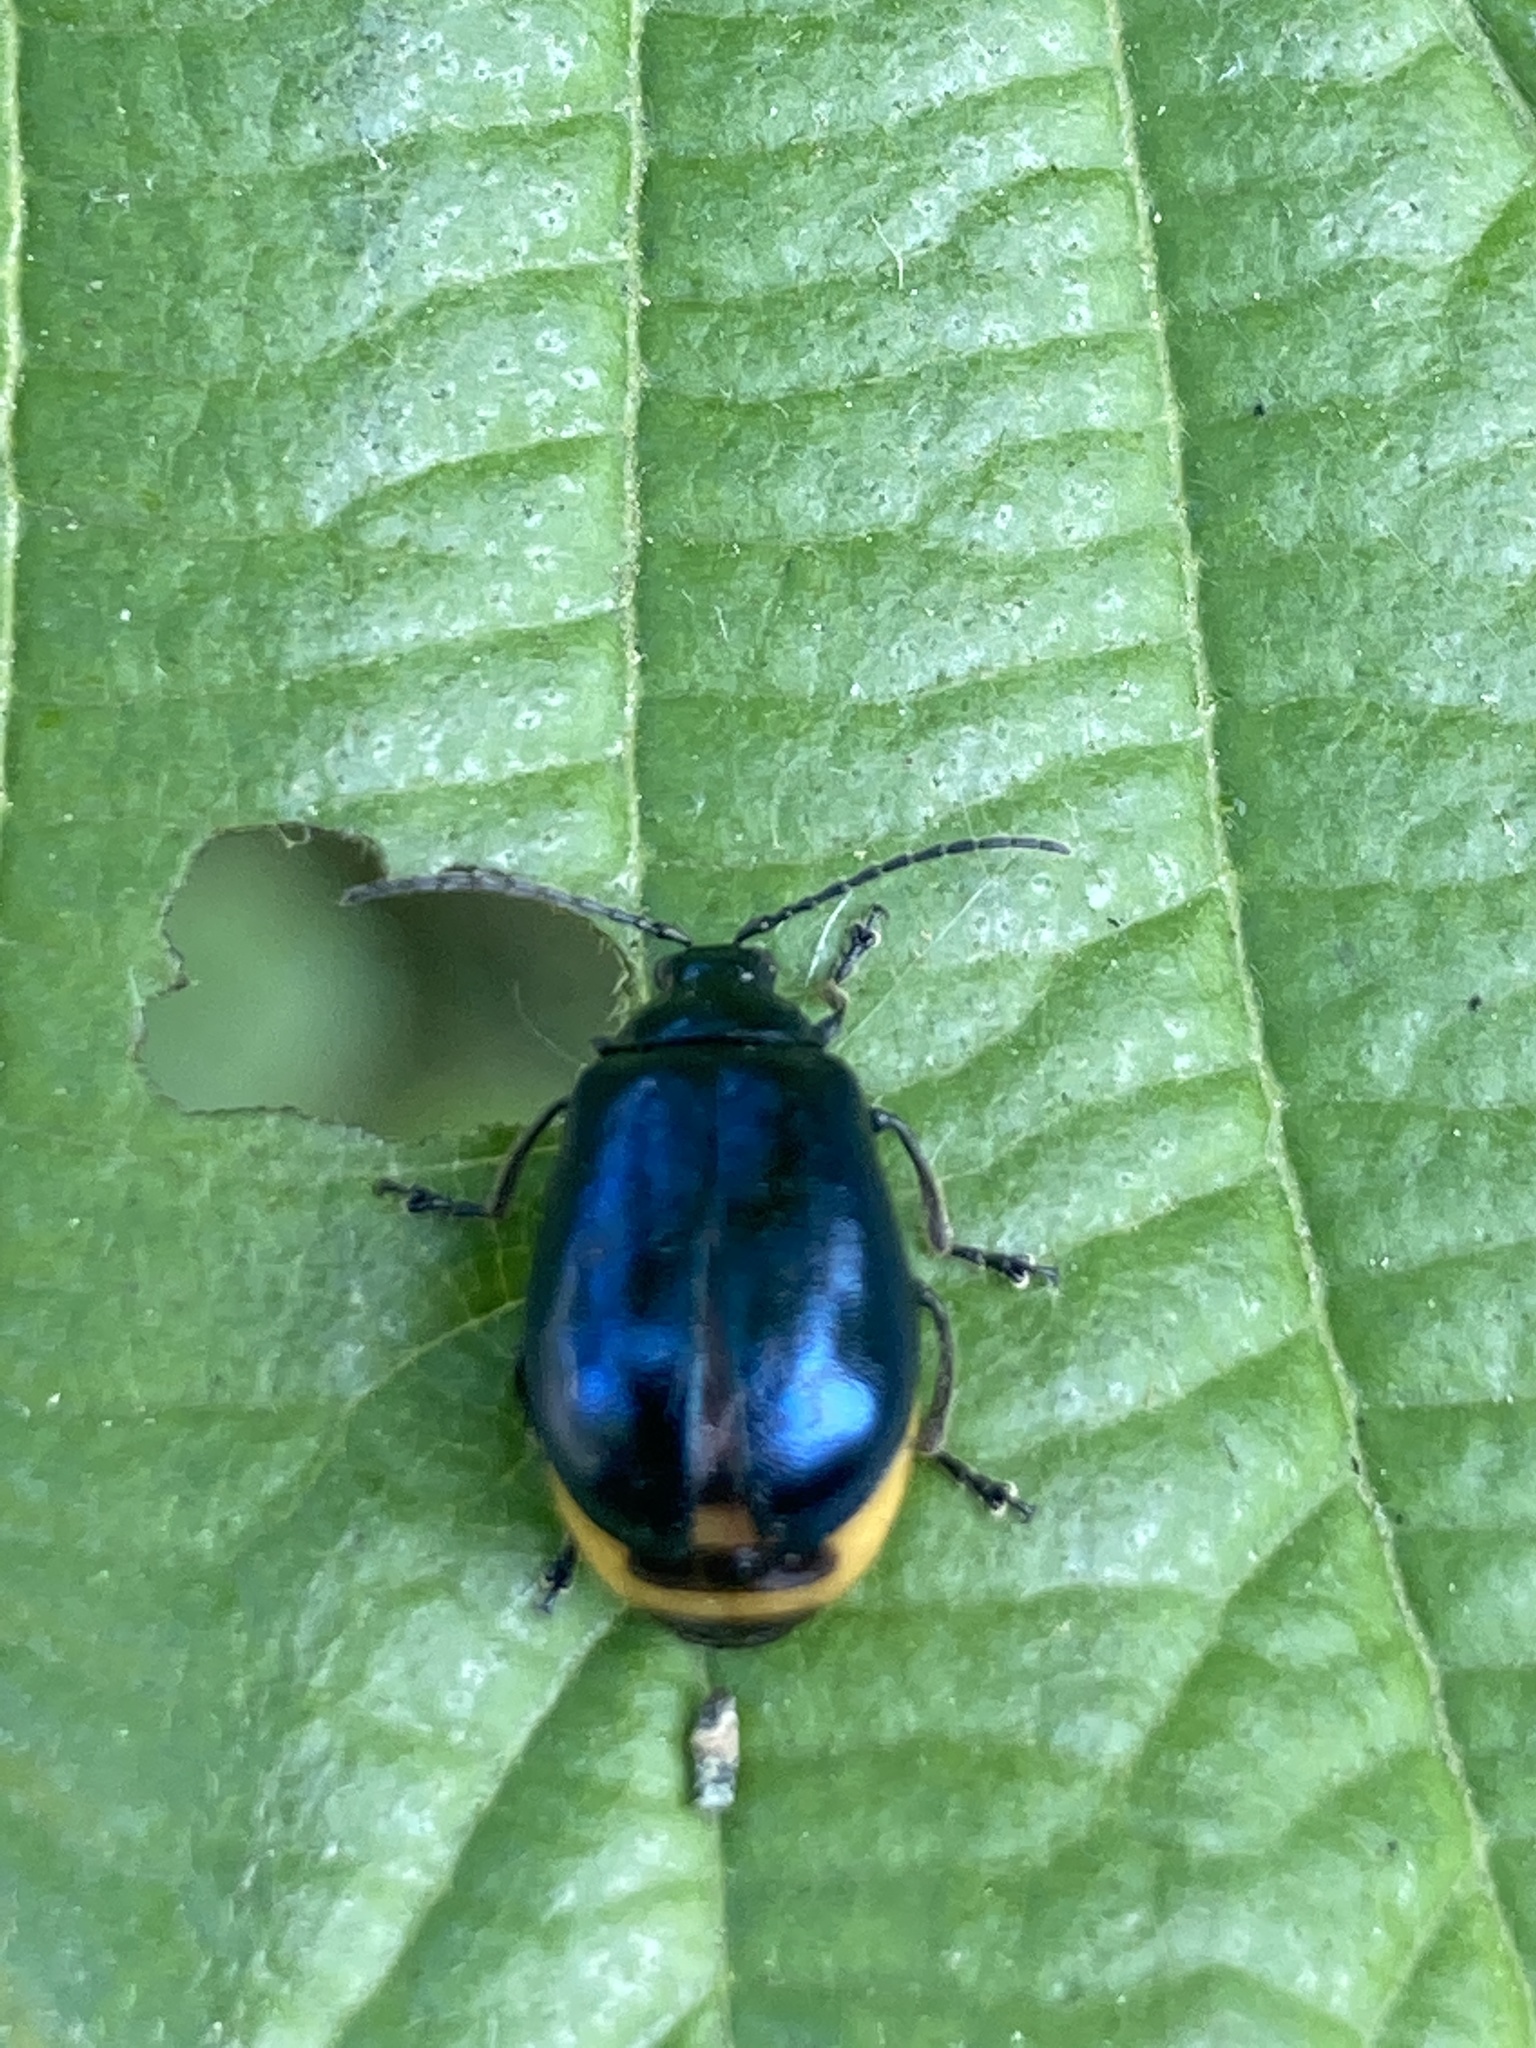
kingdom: Animalia
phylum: Arthropoda
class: Insecta
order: Coleoptera
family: Chrysomelidae
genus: Agelastica
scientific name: Agelastica alni
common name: Alder leaf beetle
